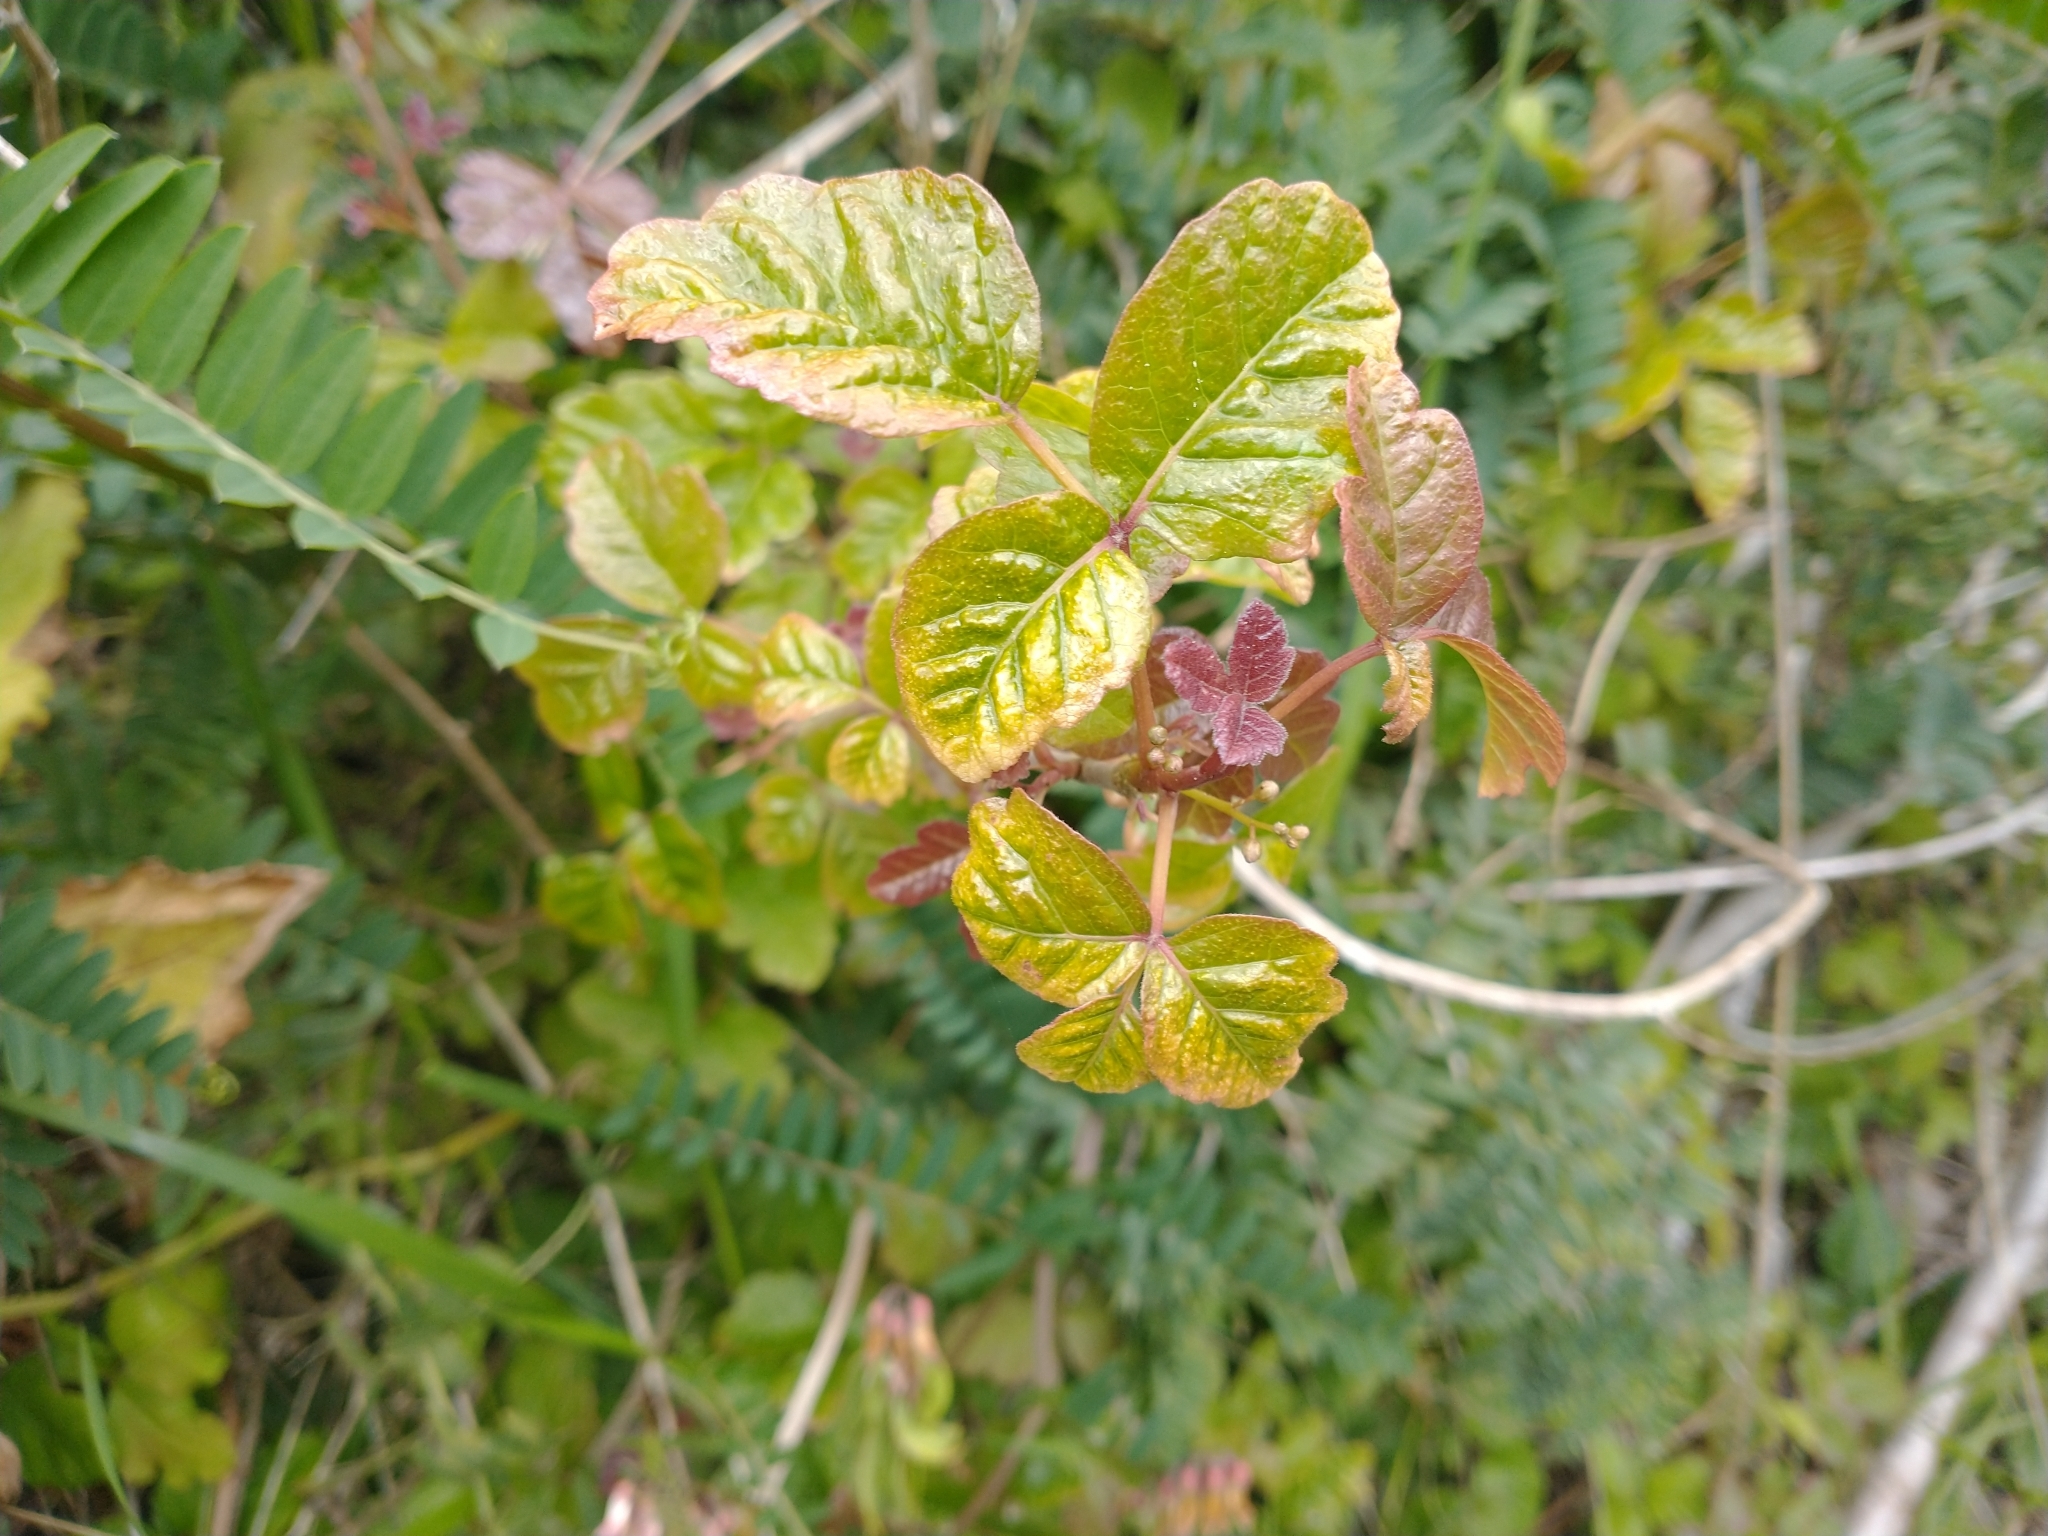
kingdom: Plantae
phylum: Tracheophyta
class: Magnoliopsida
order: Sapindales
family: Anacardiaceae
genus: Toxicodendron
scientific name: Toxicodendron diversilobum
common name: Pacific poison-oak
